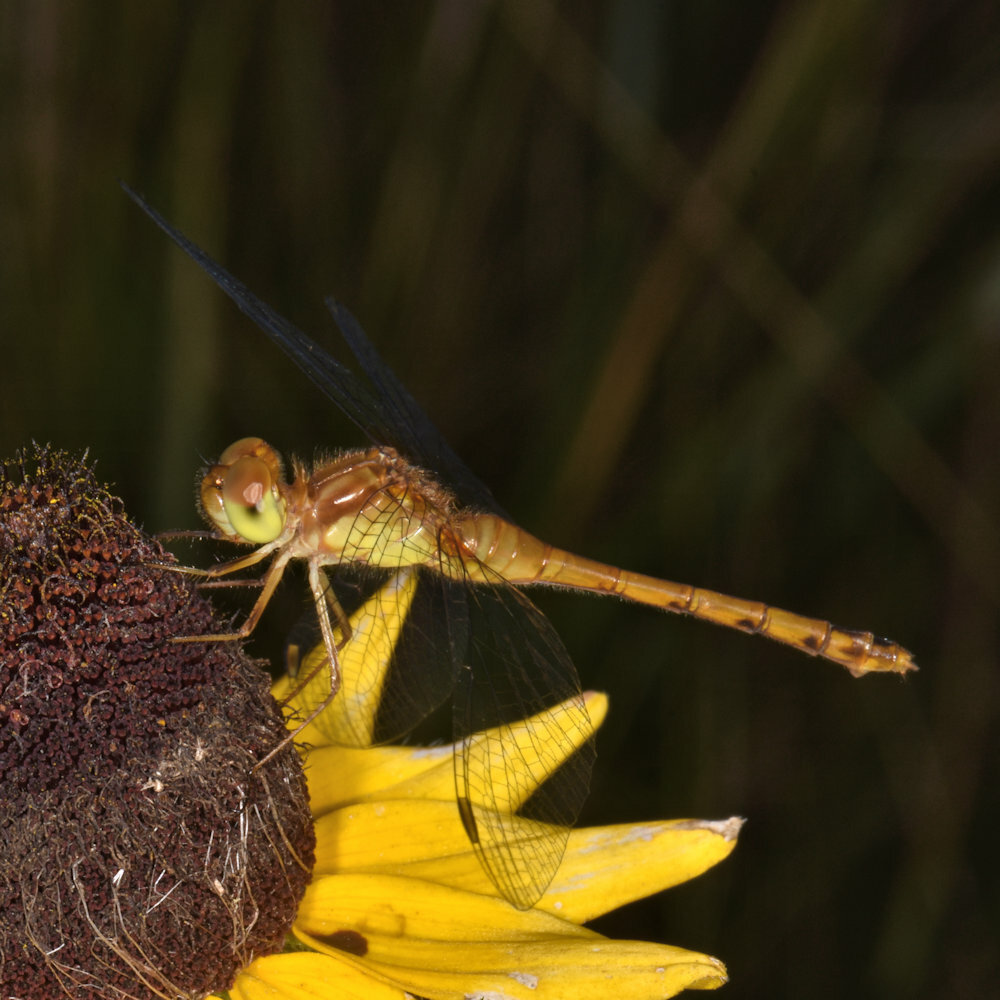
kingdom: Animalia
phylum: Arthropoda
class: Insecta
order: Odonata
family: Libellulidae
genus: Sympetrum
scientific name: Sympetrum vicinum
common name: Autumn meadowhawk
